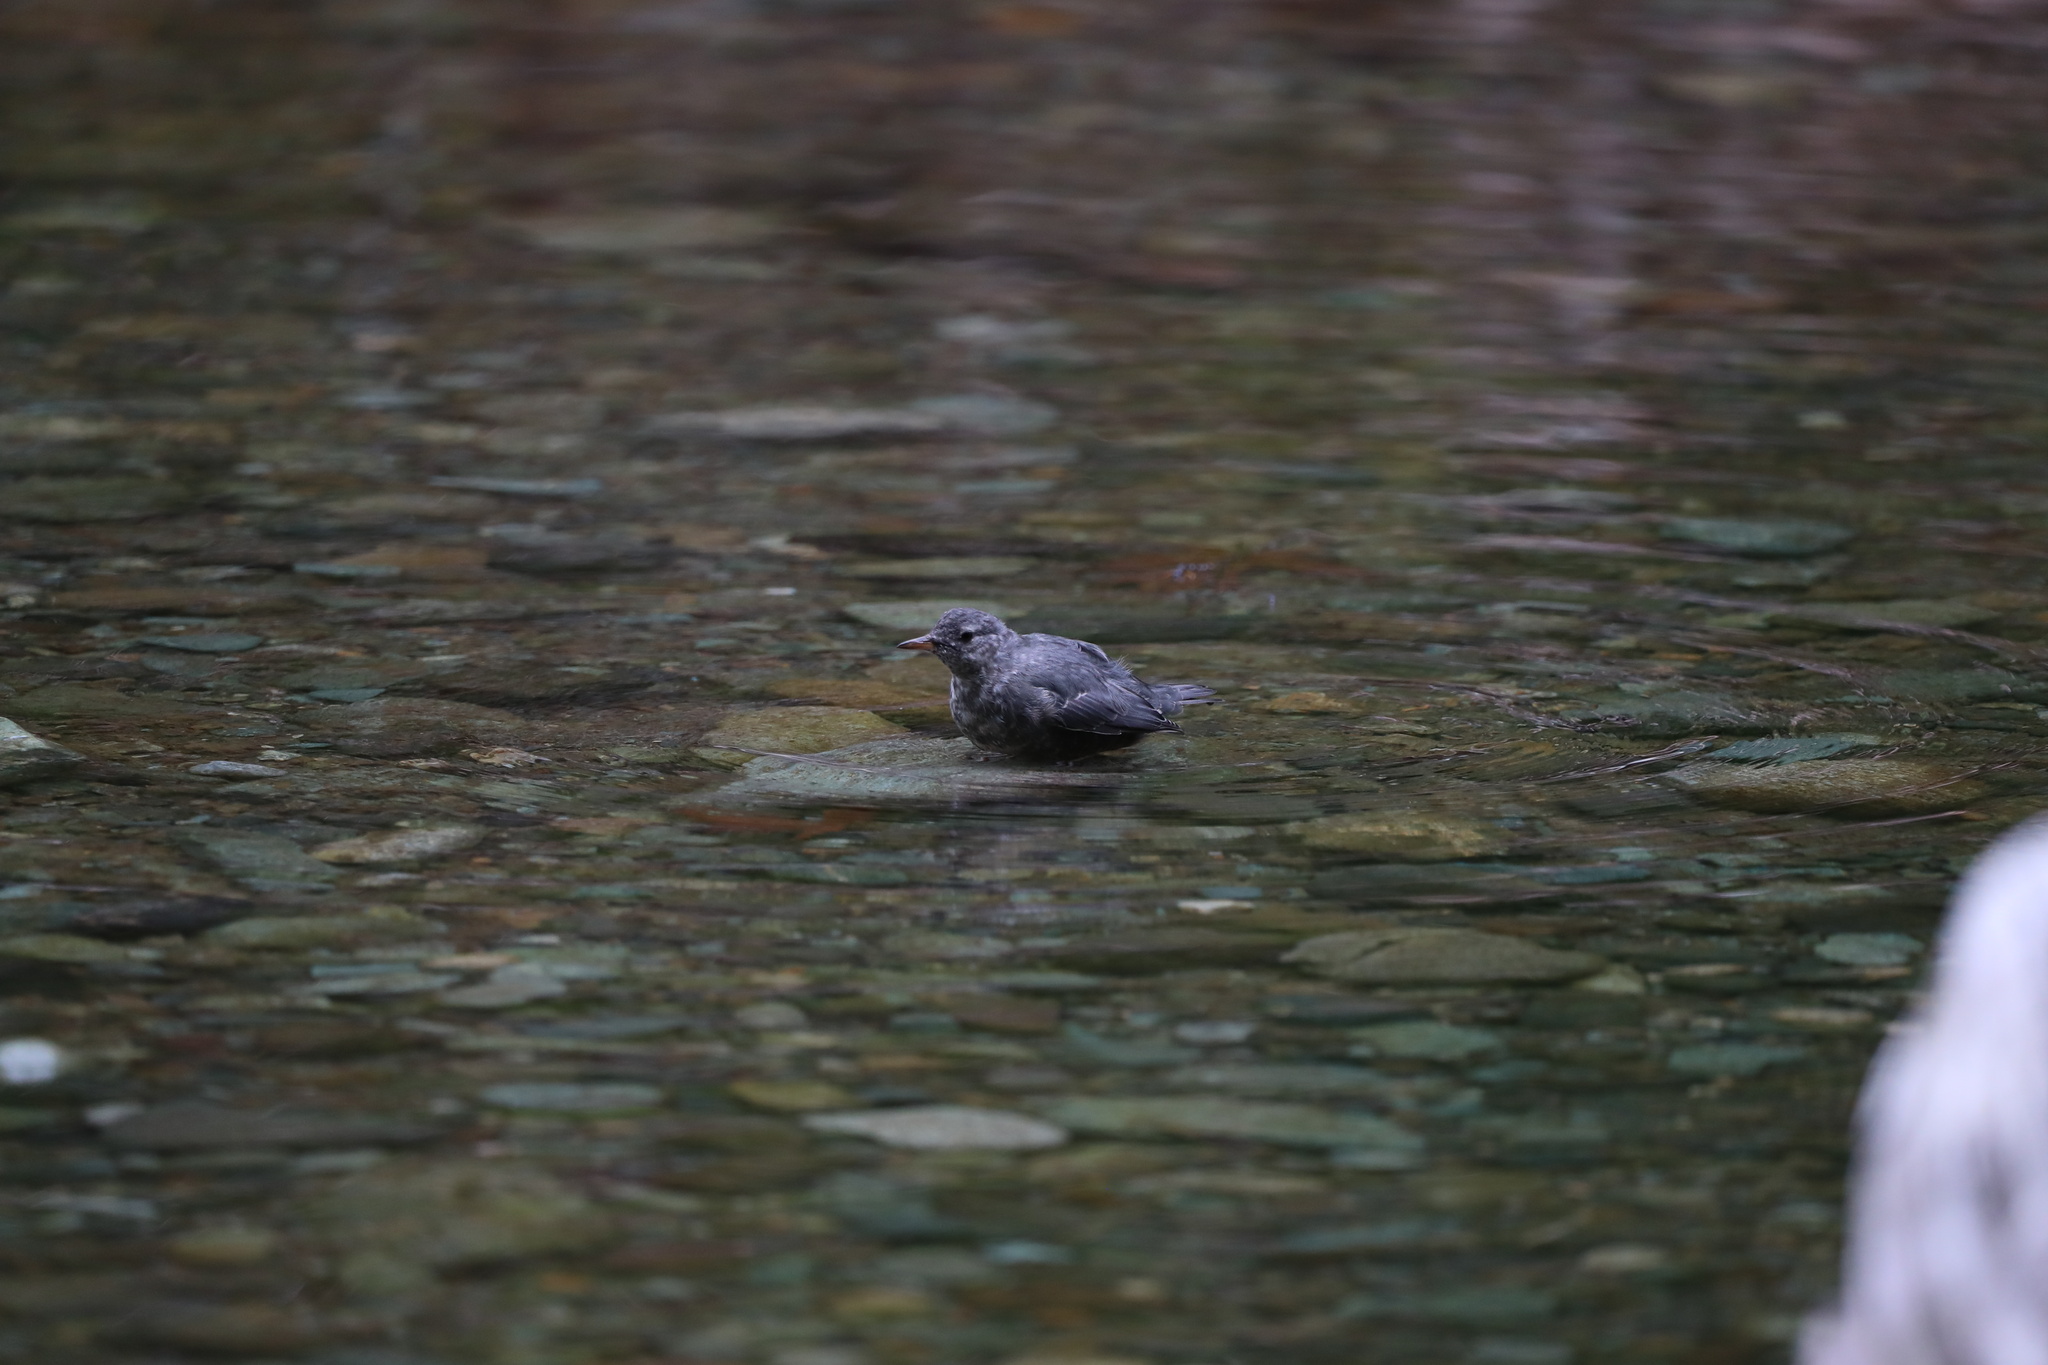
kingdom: Animalia
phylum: Chordata
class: Aves
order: Passeriformes
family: Cinclidae
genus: Cinclus
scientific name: Cinclus mexicanus
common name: American dipper
